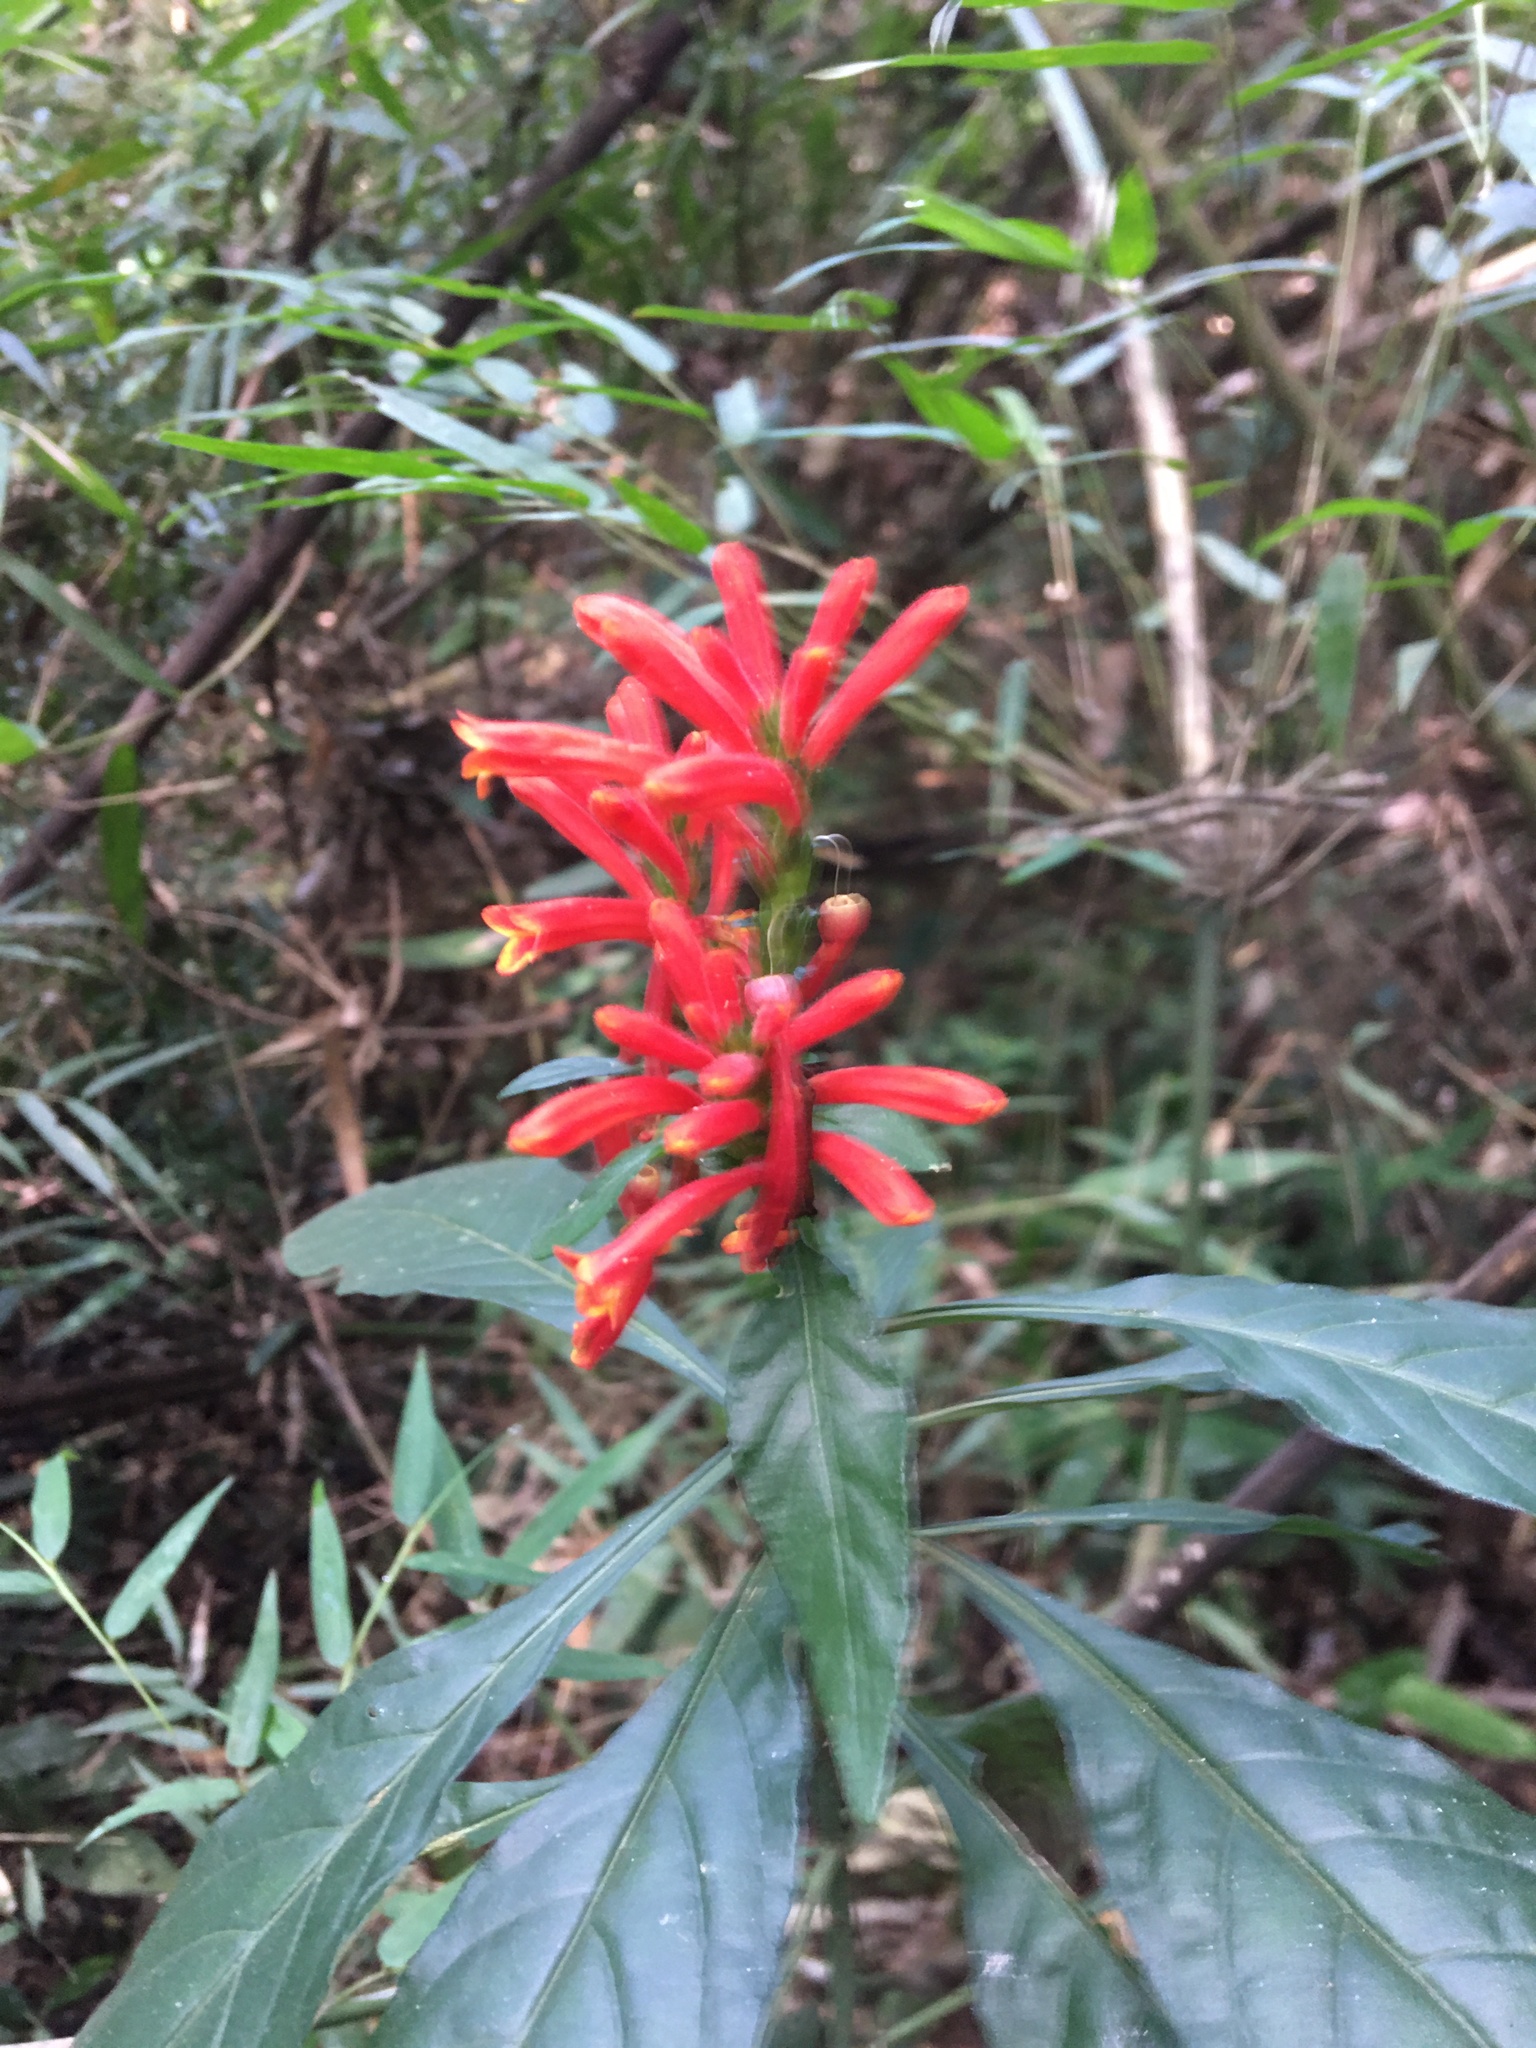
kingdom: Plantae
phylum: Tracheophyta
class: Magnoliopsida
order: Lamiales
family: Acanthaceae
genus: Aphelandra
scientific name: Aphelandra longiflora
